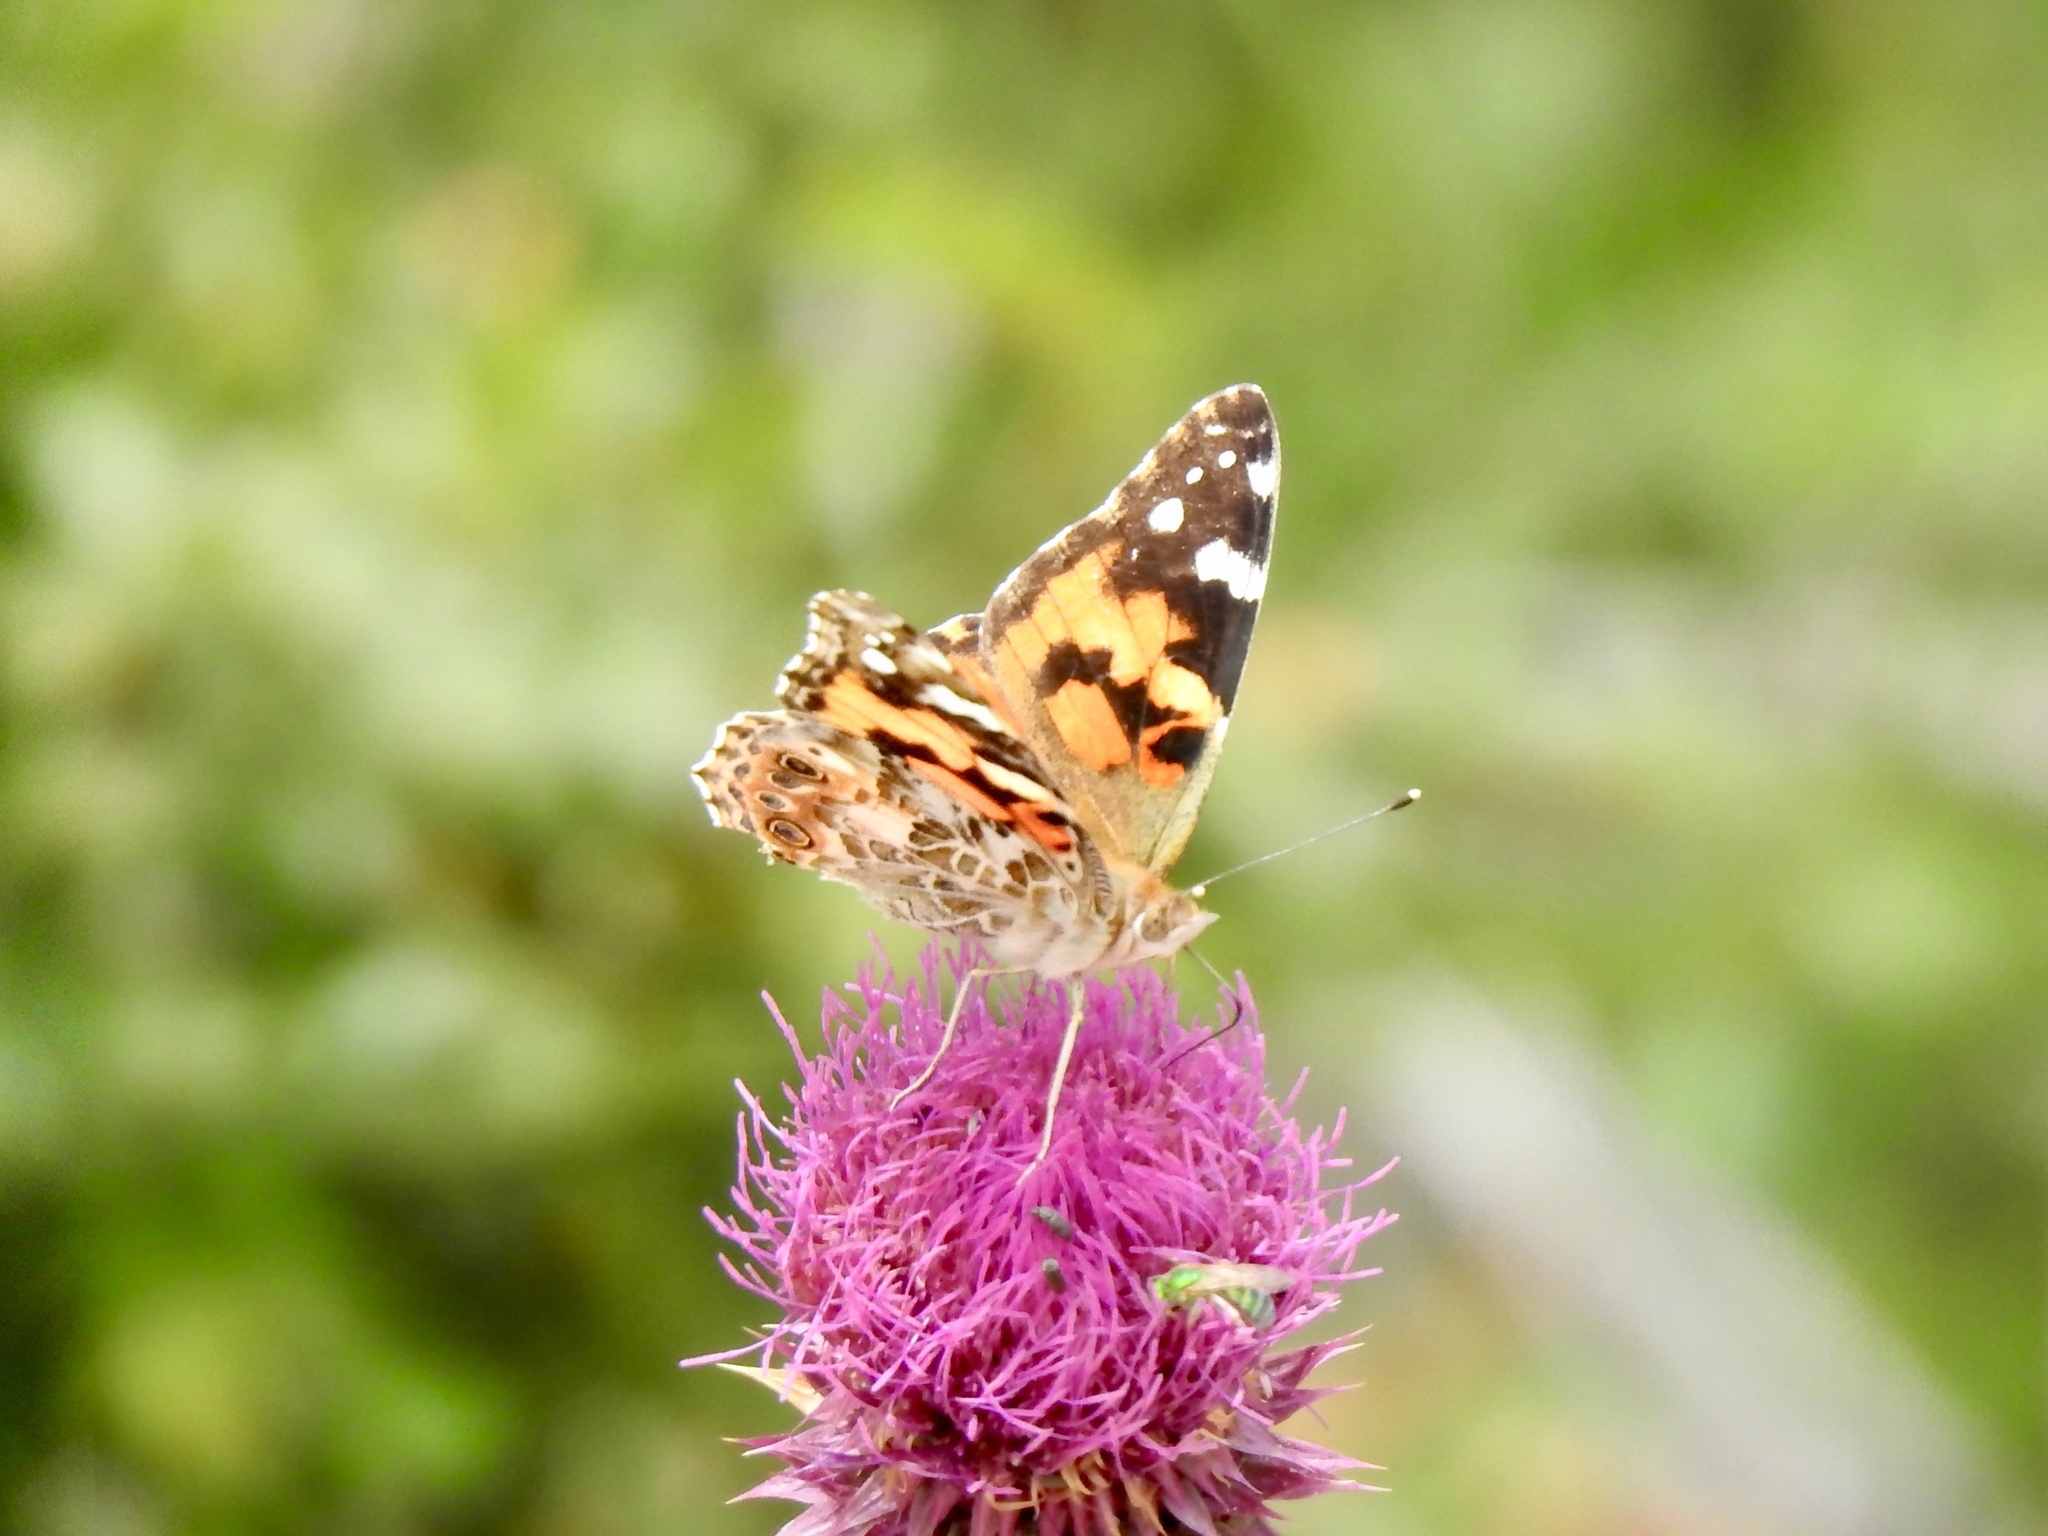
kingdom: Animalia
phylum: Arthropoda
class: Insecta
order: Lepidoptera
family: Nymphalidae
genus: Vanessa
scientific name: Vanessa cardui
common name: Painted lady
